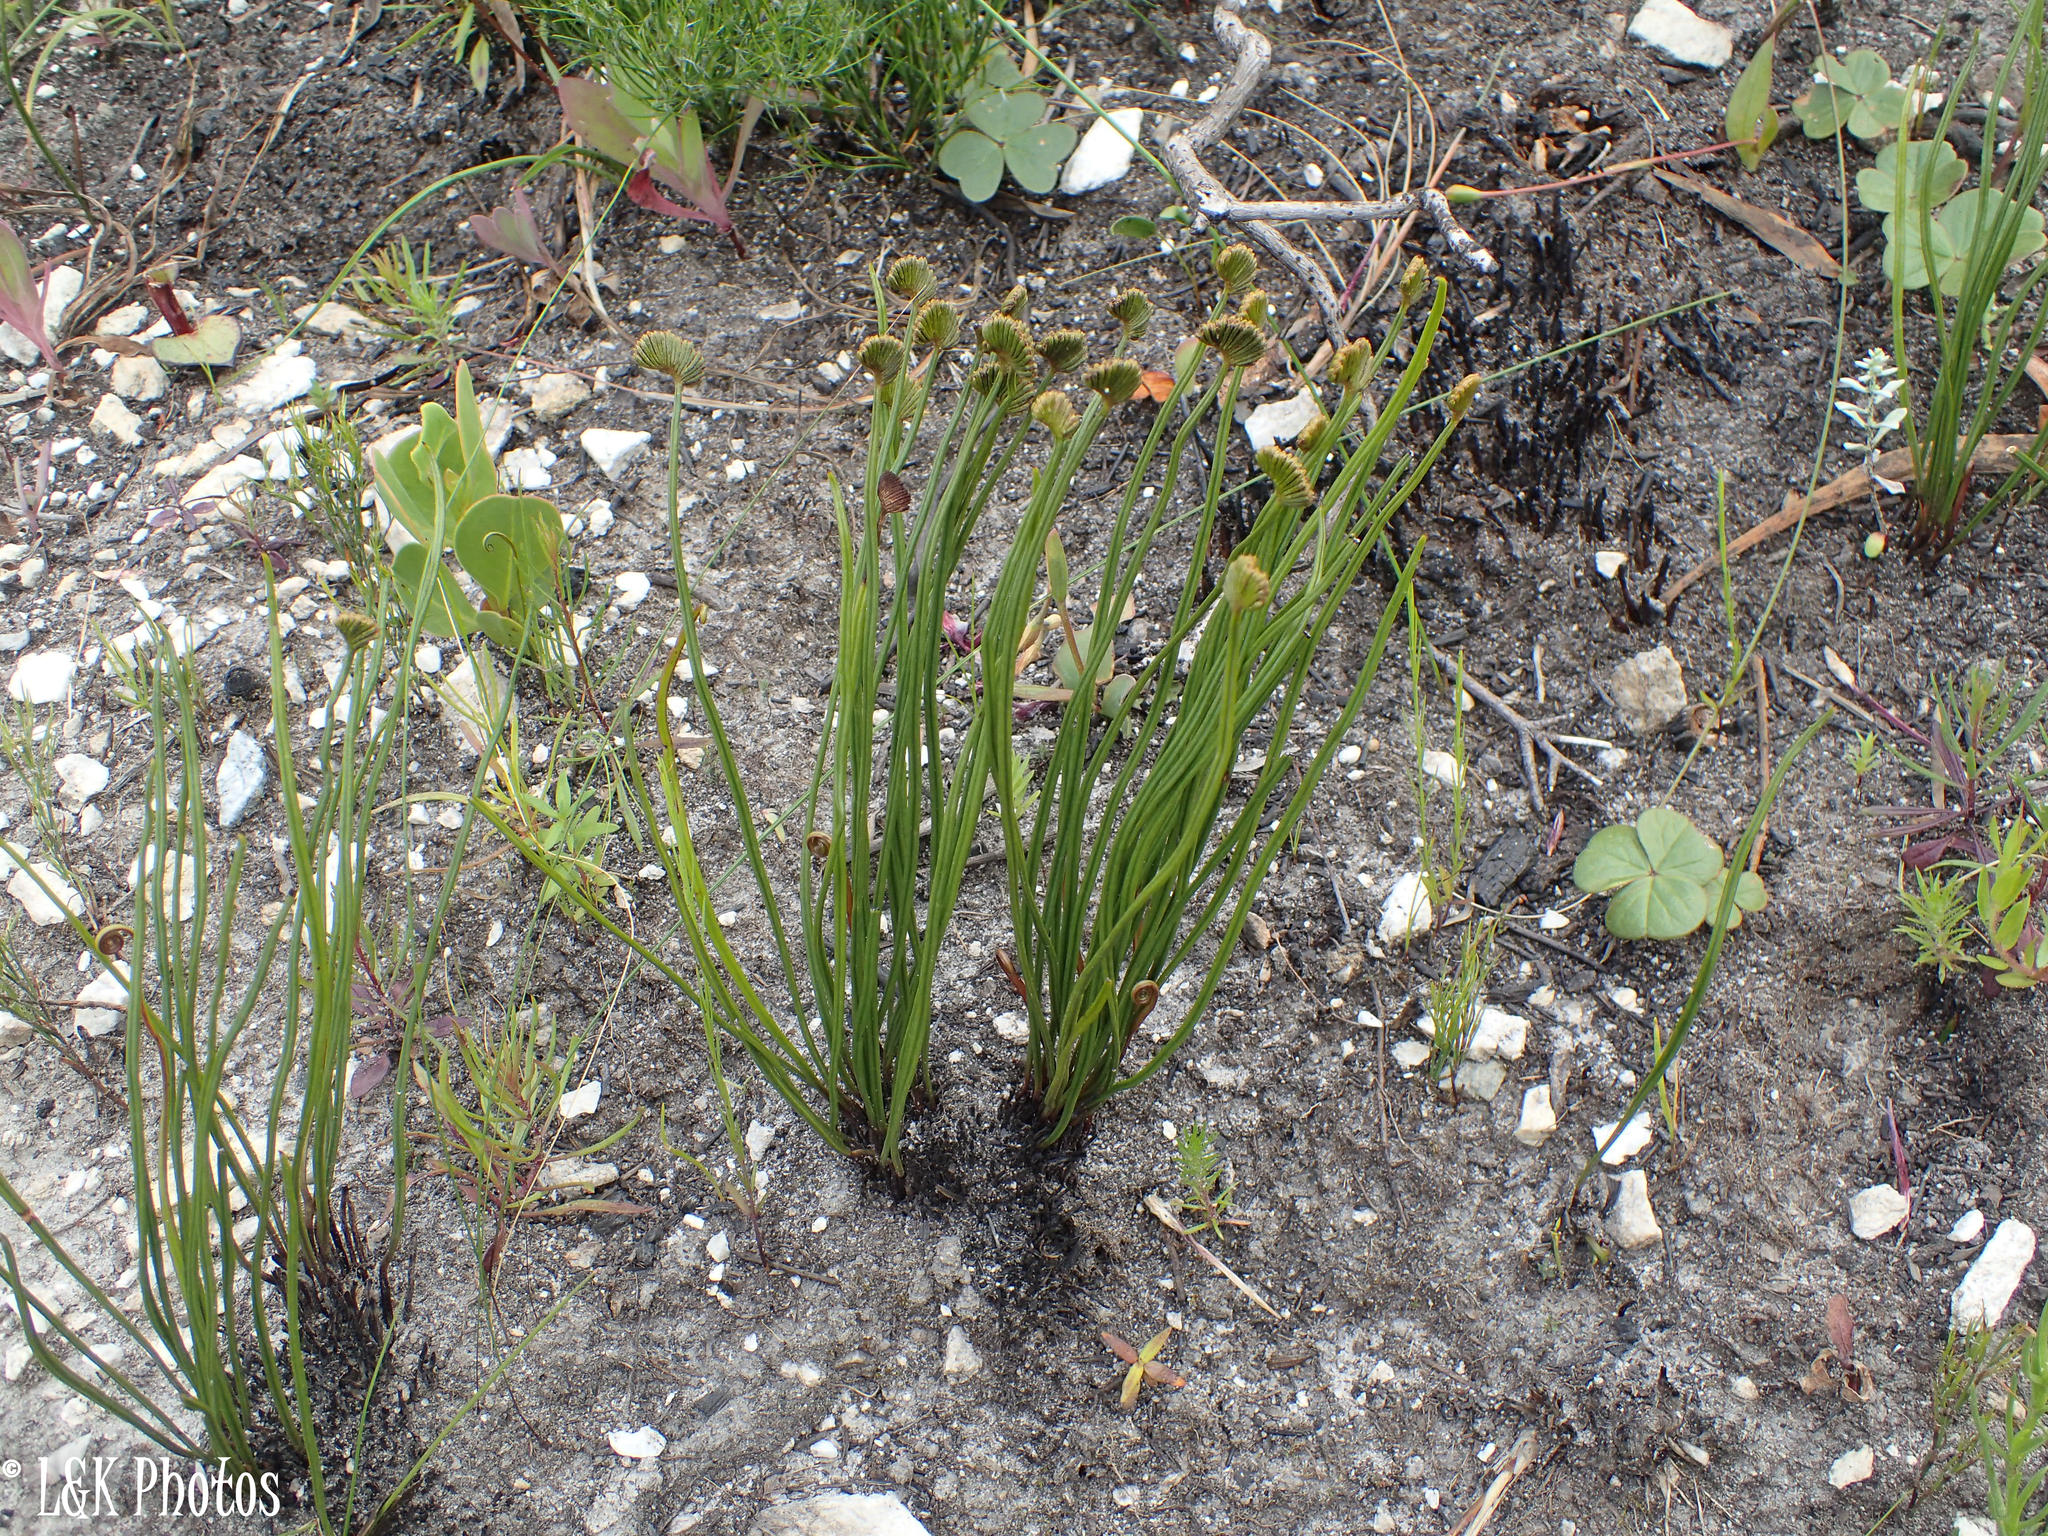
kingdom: Plantae
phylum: Tracheophyta
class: Polypodiopsida
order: Schizaeales
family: Schizaeaceae
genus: Schizaea
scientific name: Schizaea pectinata
